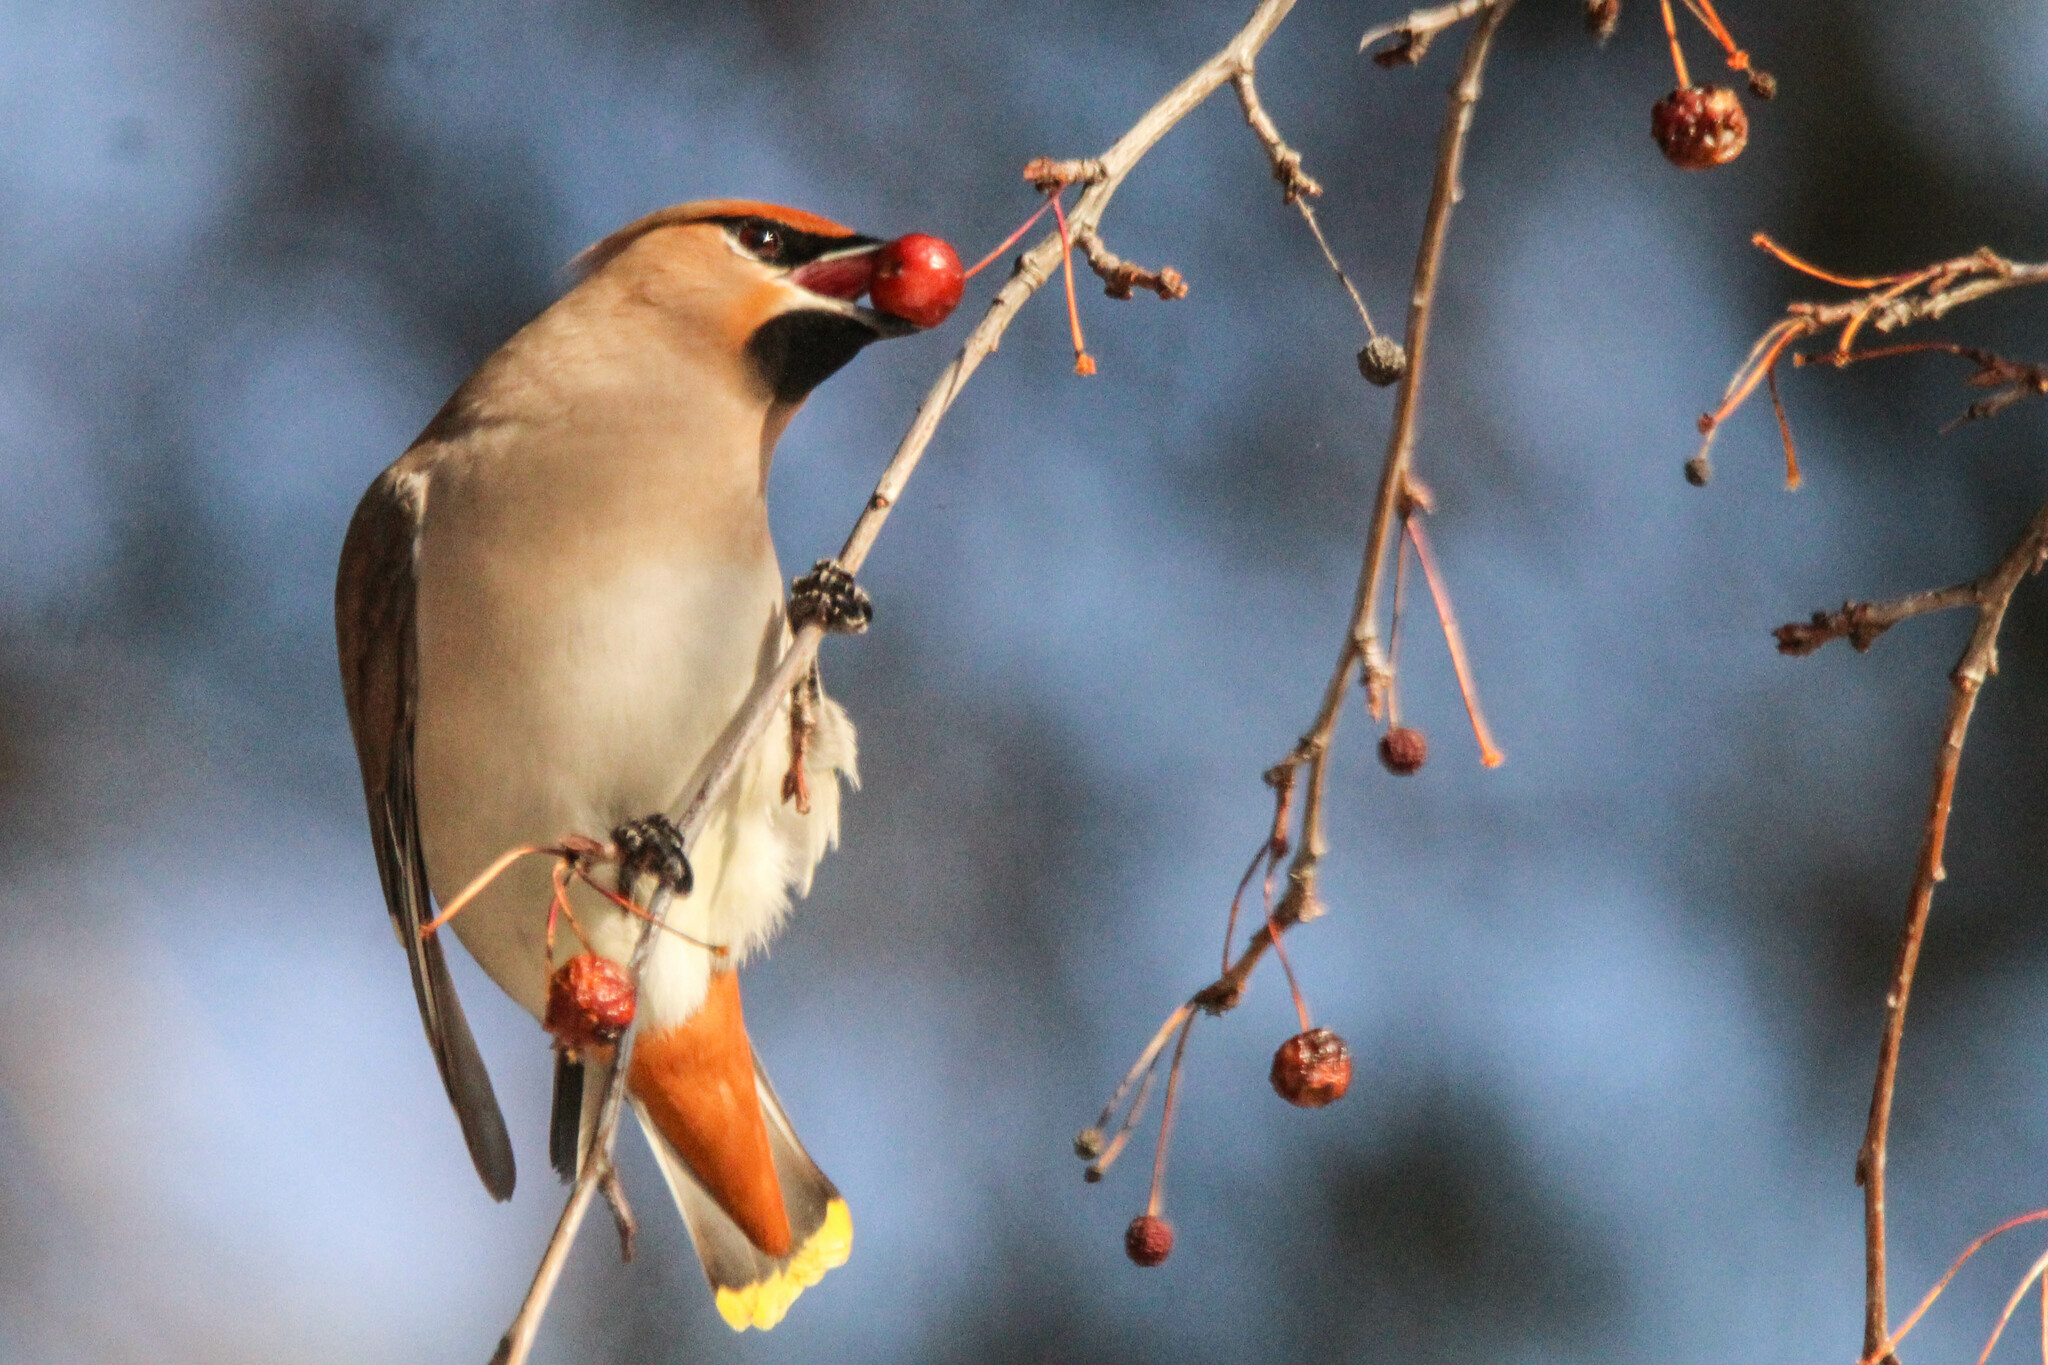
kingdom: Animalia
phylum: Chordata
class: Aves
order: Passeriformes
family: Bombycillidae
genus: Bombycilla
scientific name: Bombycilla garrulus
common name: Bohemian waxwing
